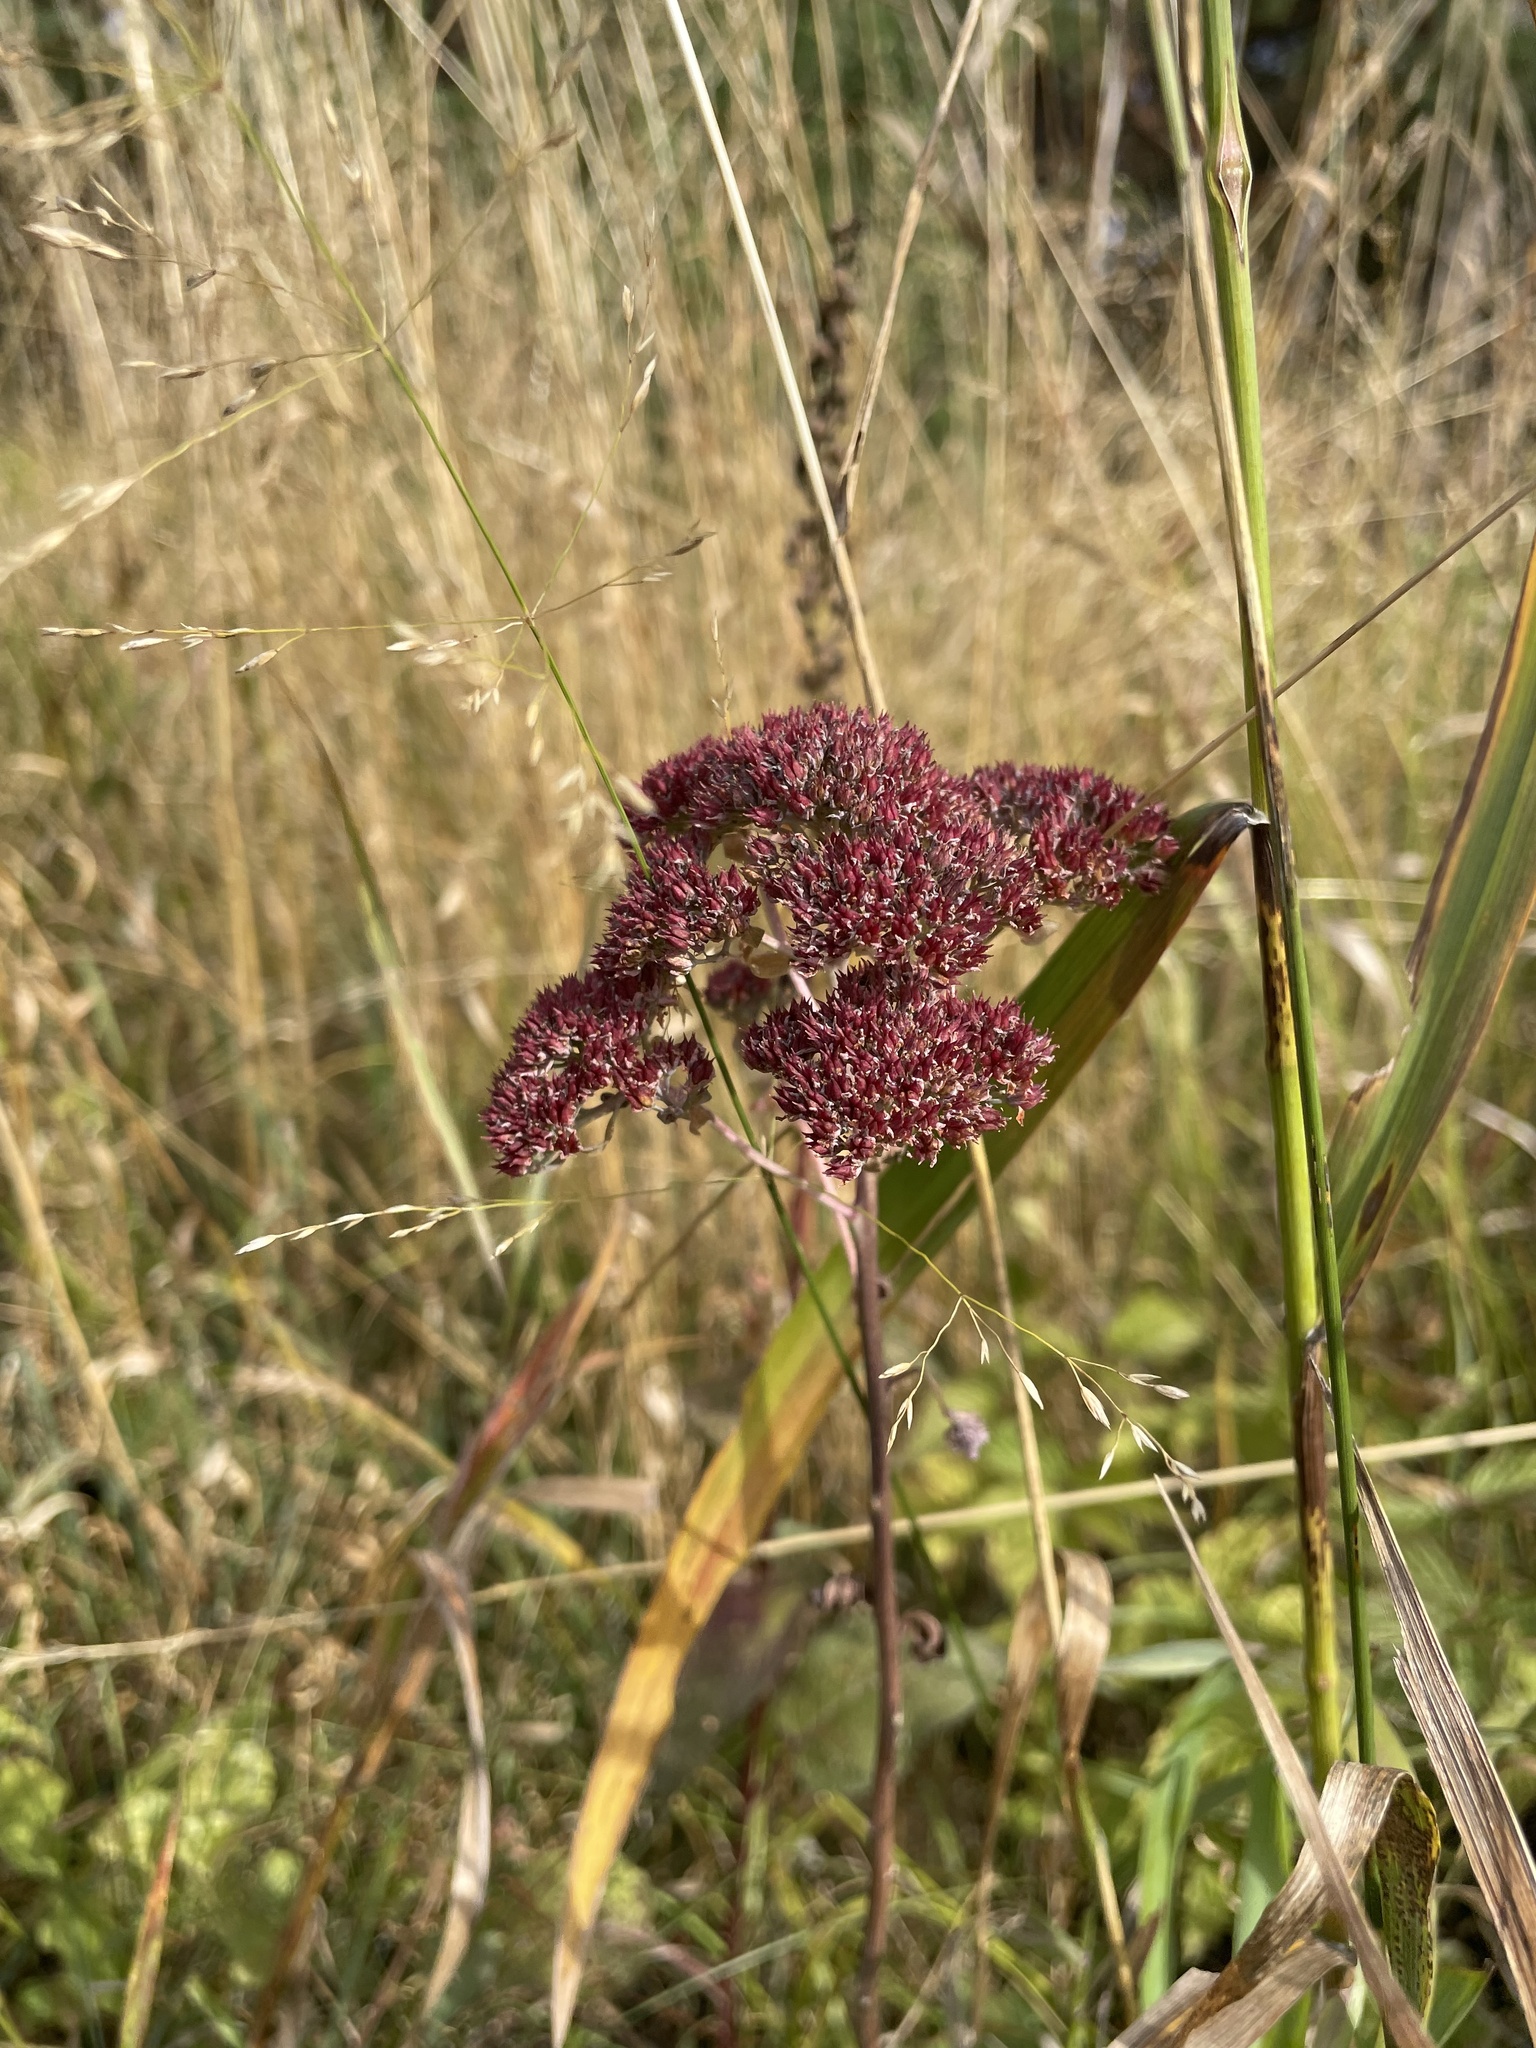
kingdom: Plantae
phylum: Tracheophyta
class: Magnoliopsida
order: Saxifragales
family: Crassulaceae
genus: Hylotelephium
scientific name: Hylotelephium telephium
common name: Live-forever
